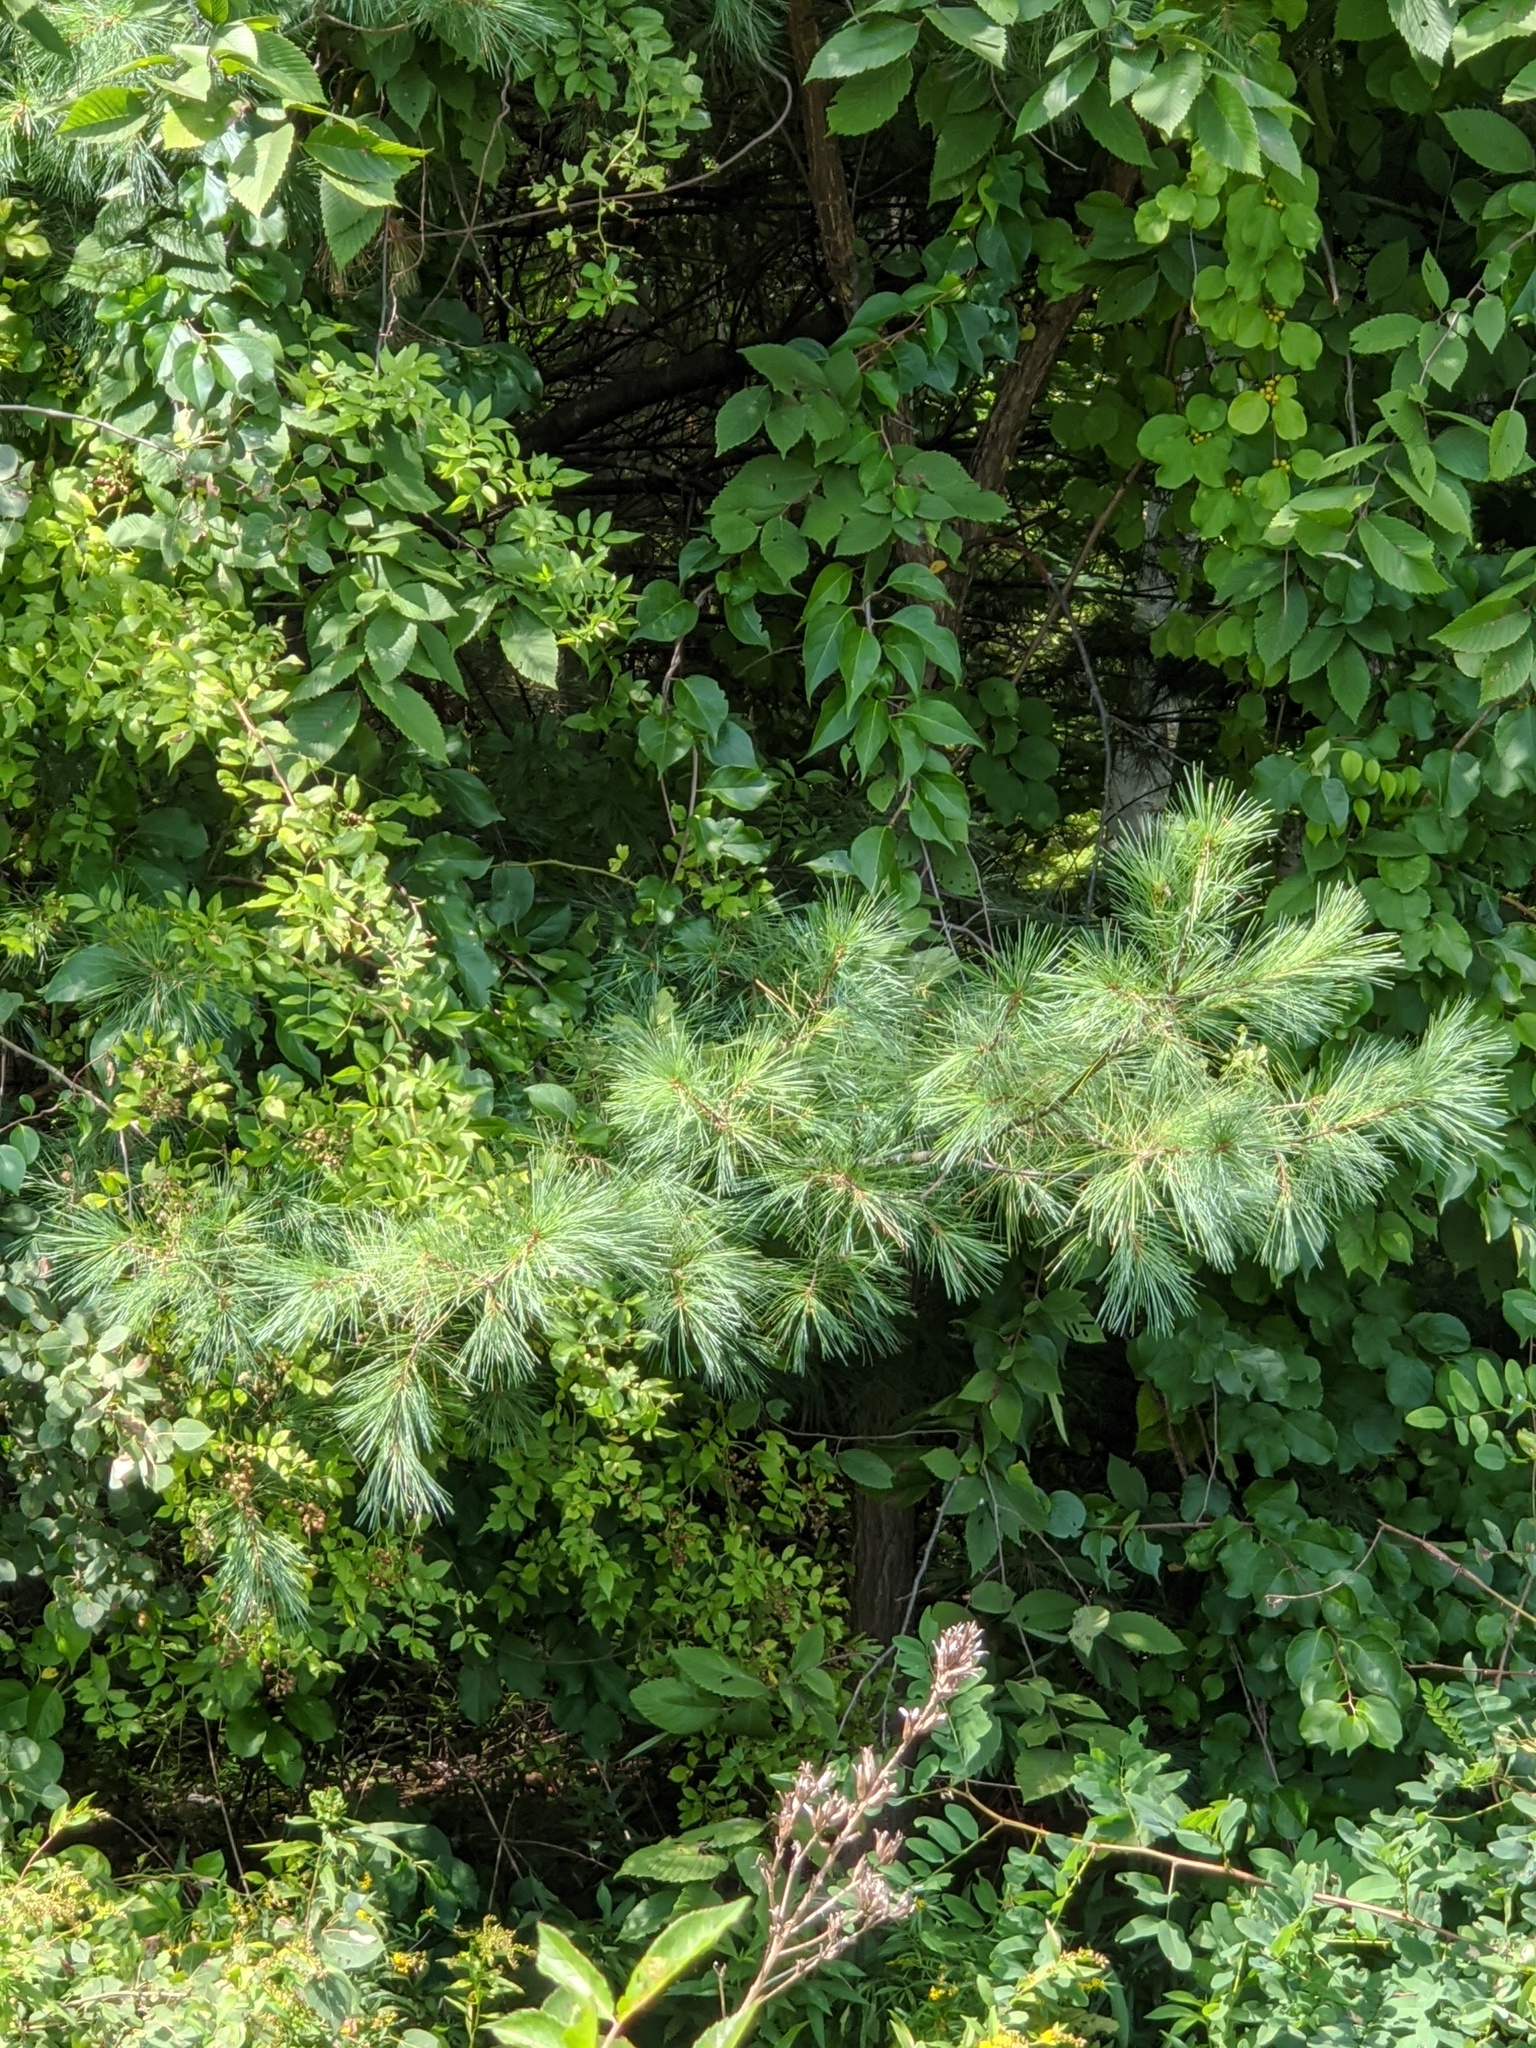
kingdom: Plantae
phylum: Tracheophyta
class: Pinopsida
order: Pinales
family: Pinaceae
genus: Pinus
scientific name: Pinus strobus
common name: Weymouth pine
